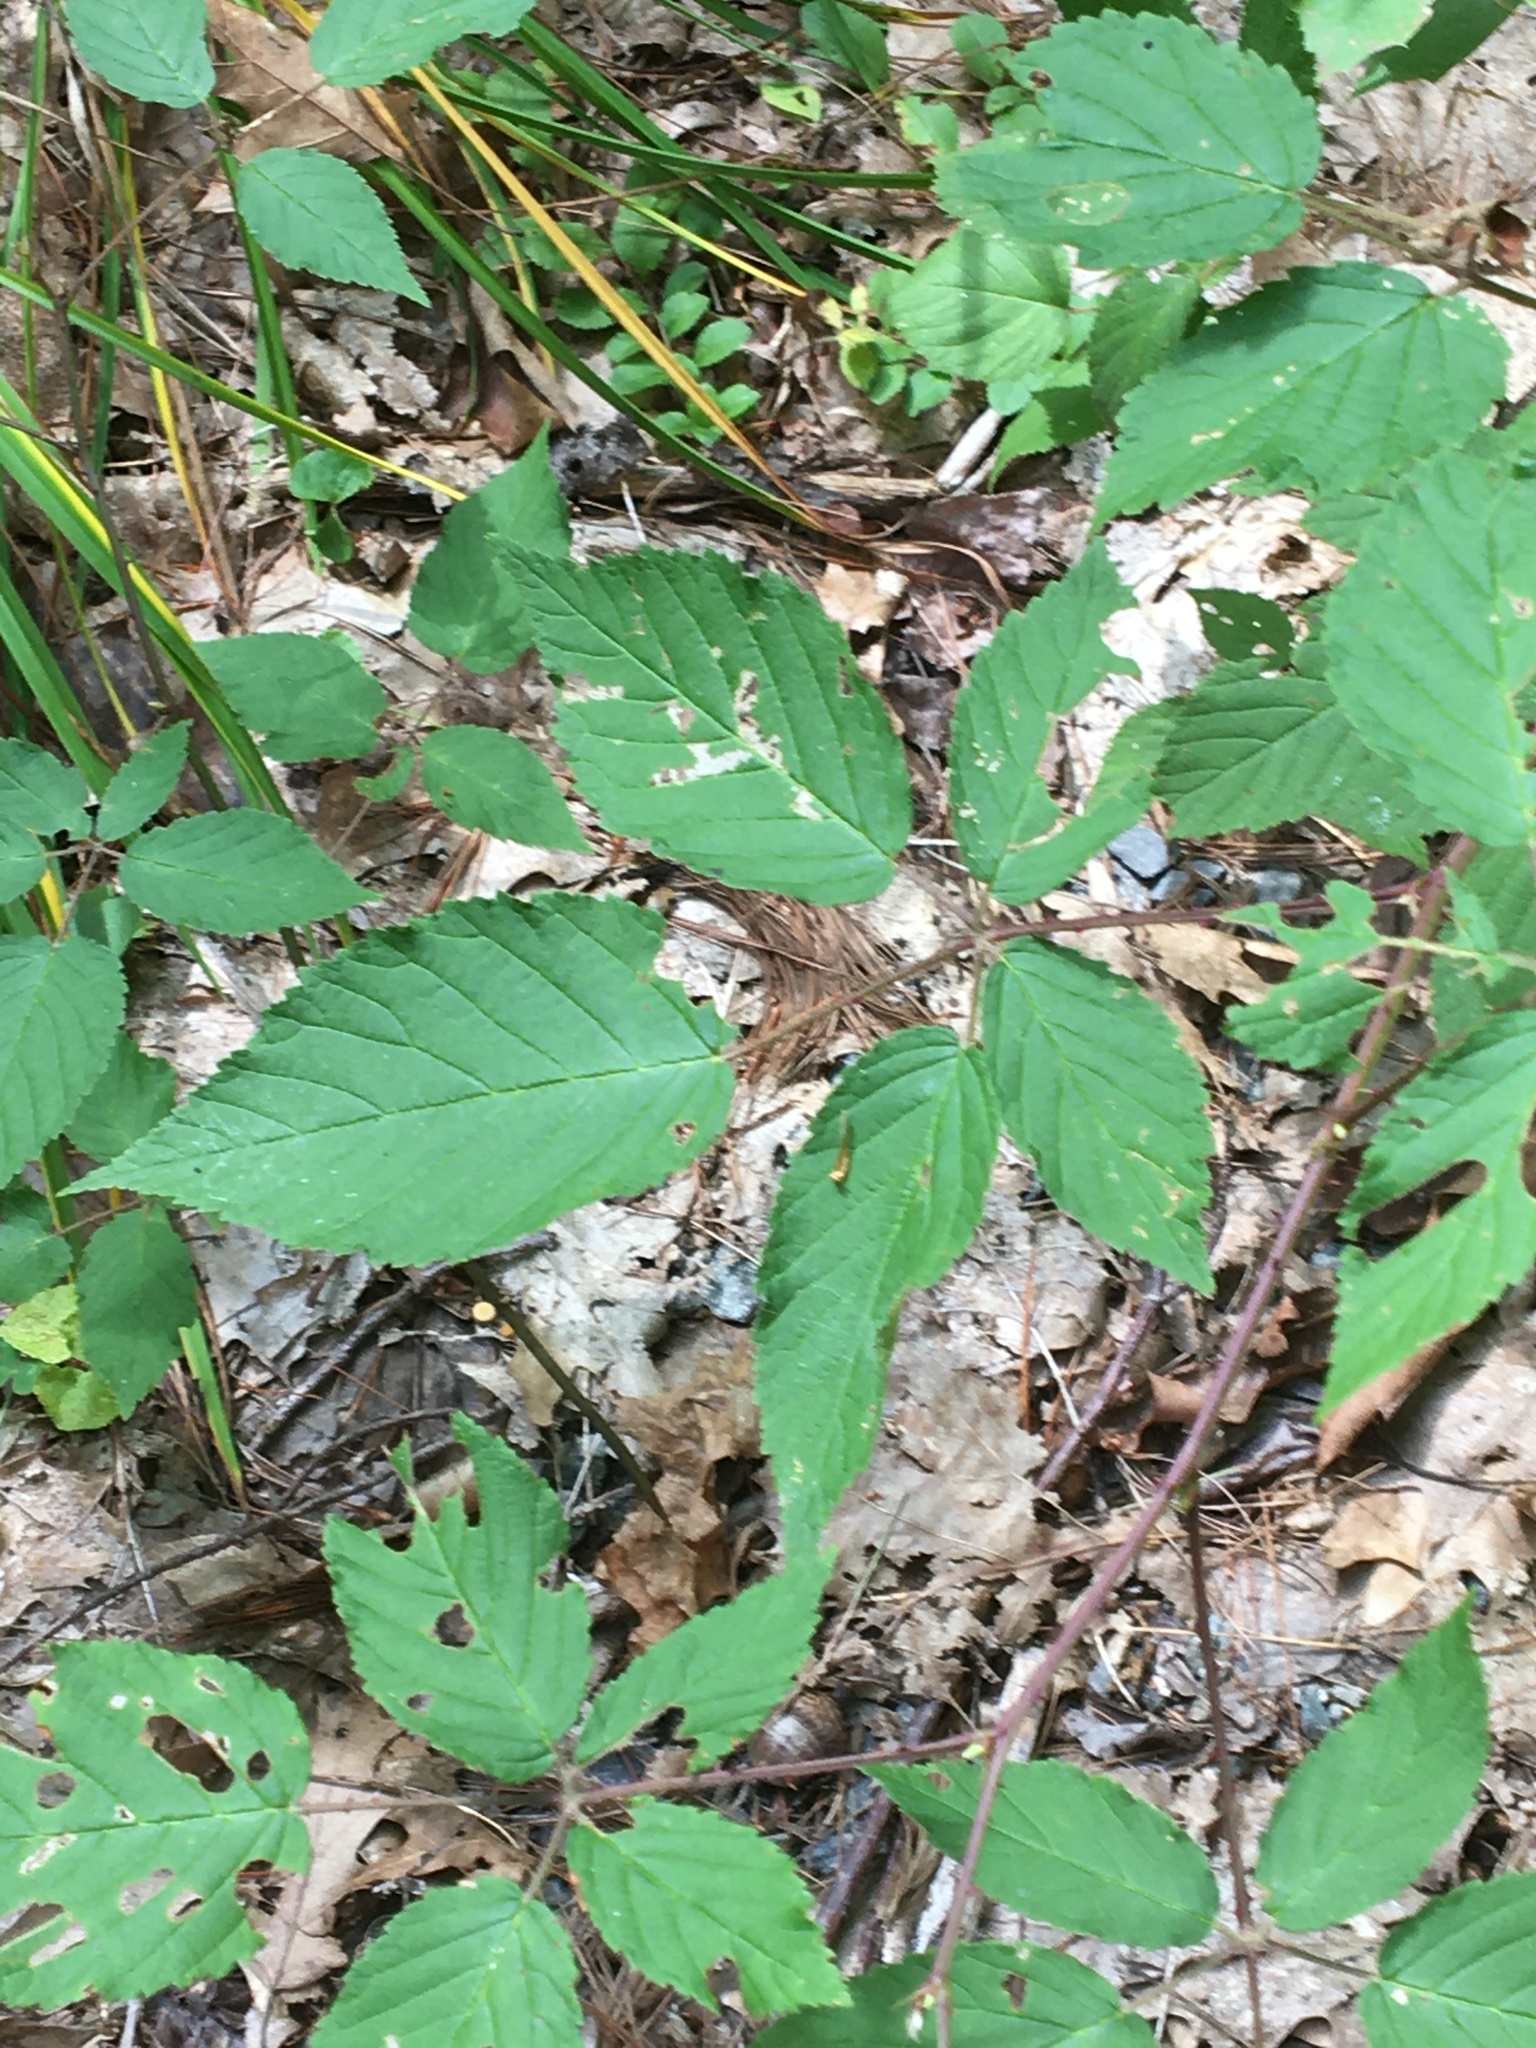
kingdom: Plantae
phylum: Tracheophyta
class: Magnoliopsida
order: Rosales
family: Rosaceae
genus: Rubus
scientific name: Rubus
